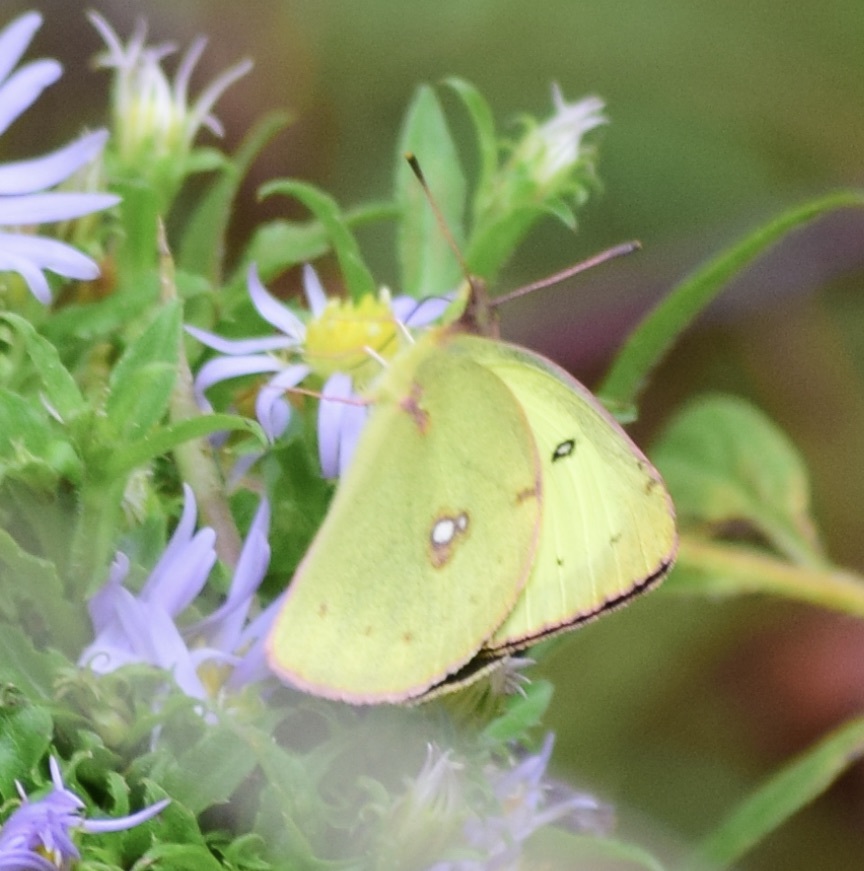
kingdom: Animalia
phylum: Arthropoda
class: Insecta
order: Lepidoptera
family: Pieridae
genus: Colias
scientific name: Colias philodice
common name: Clouded sulphur
